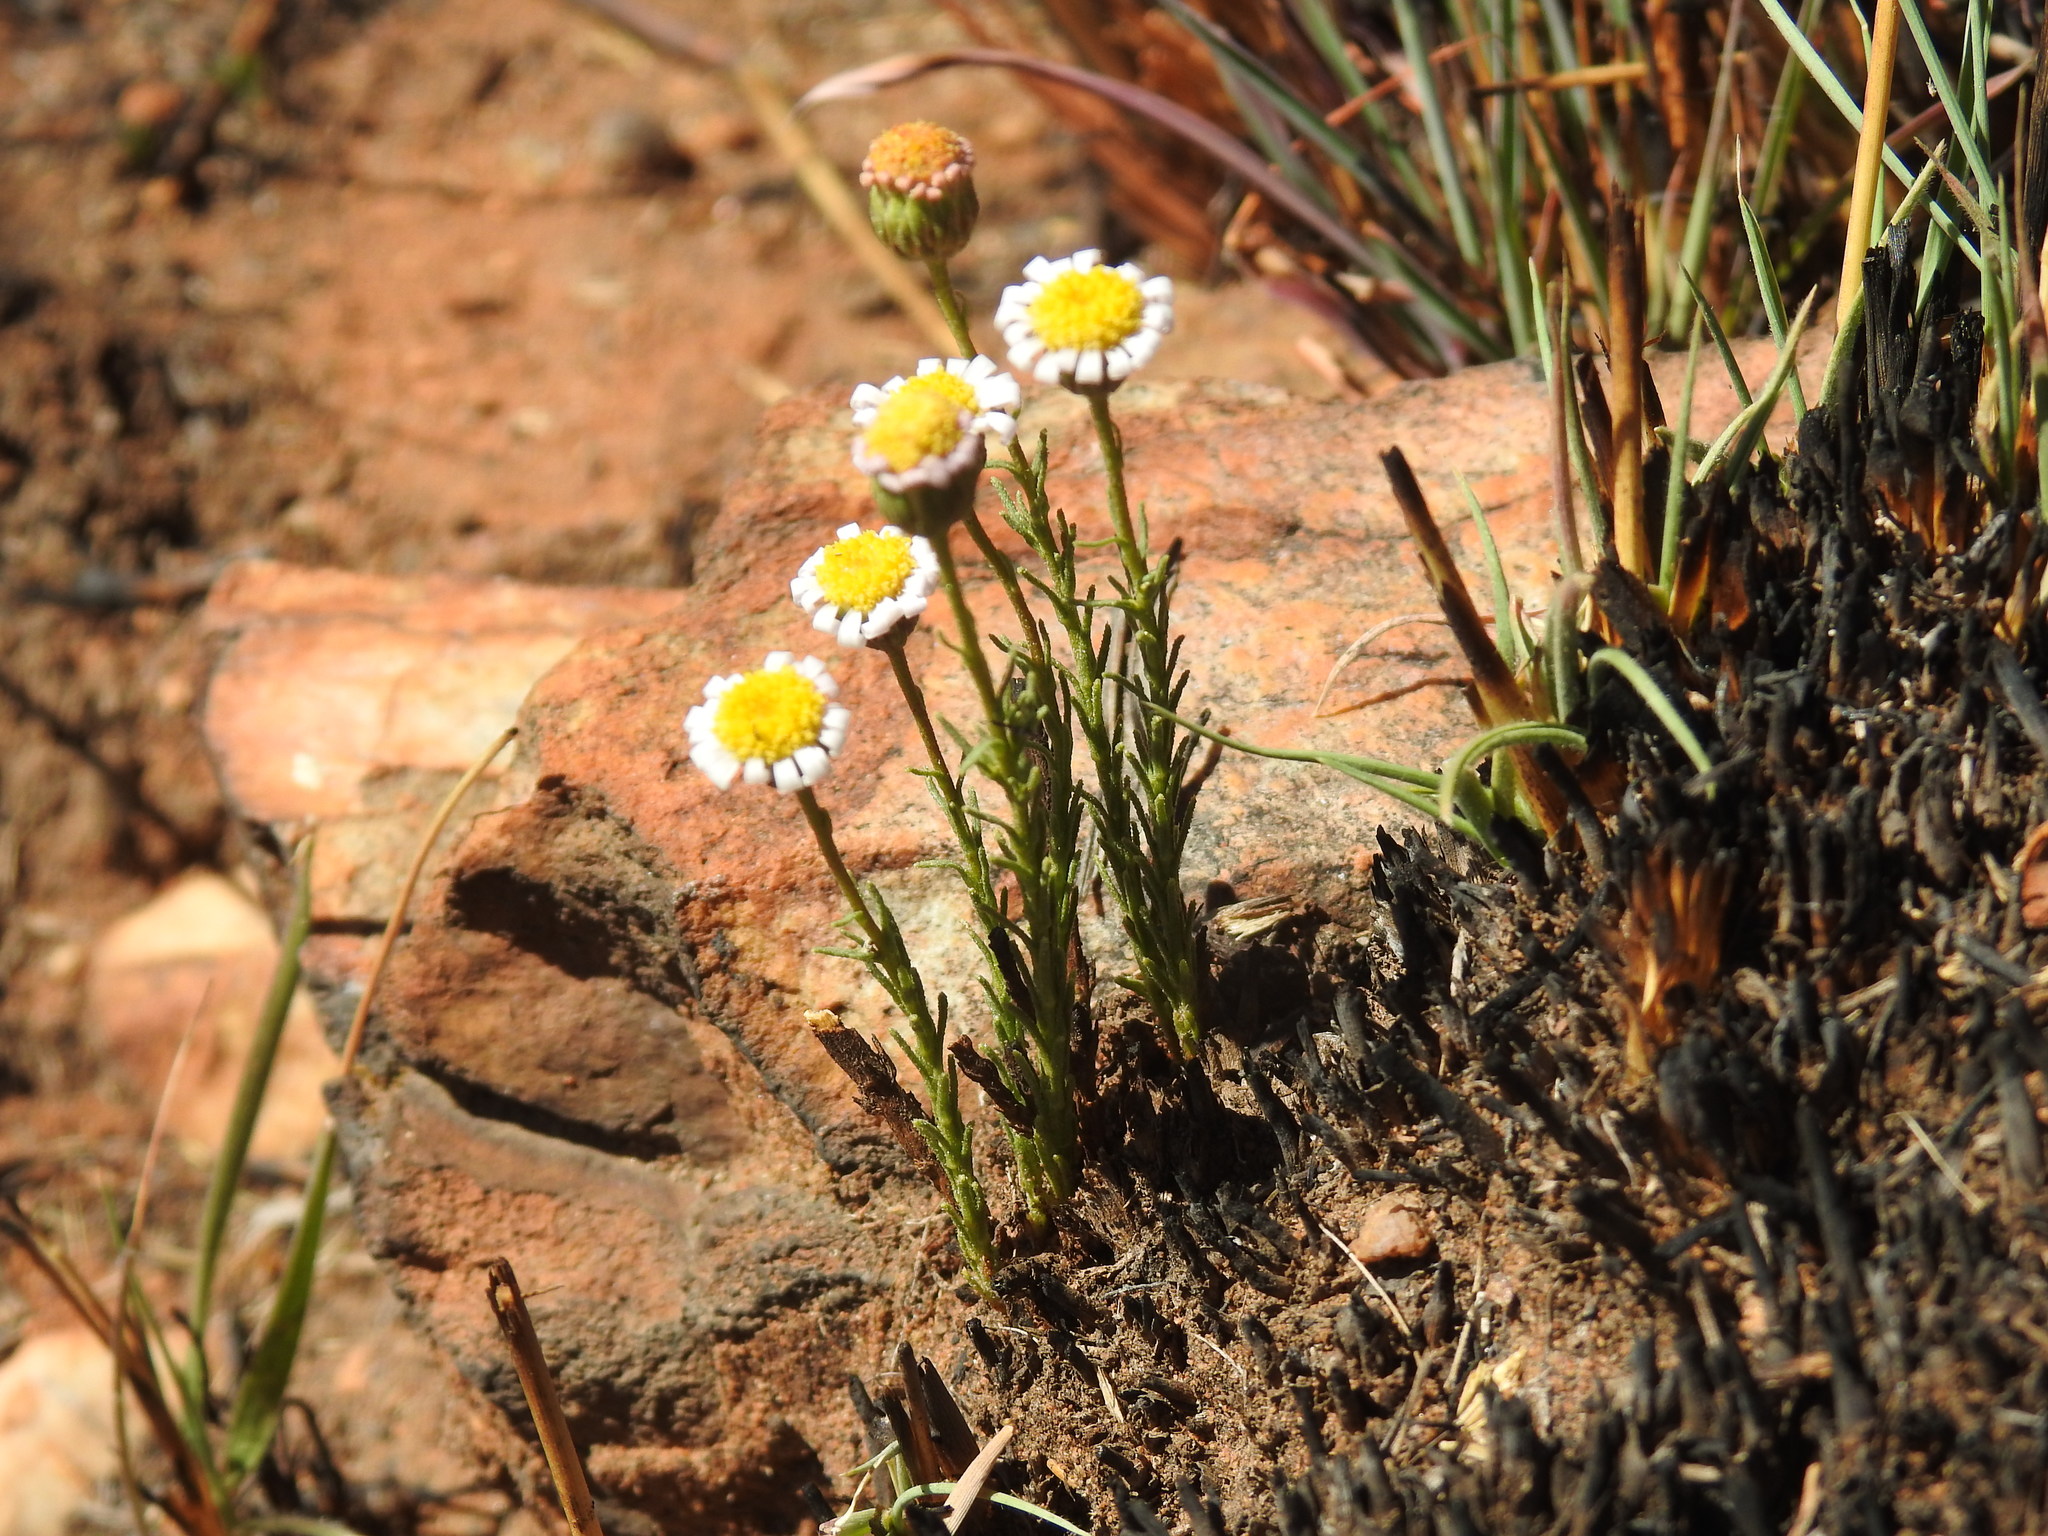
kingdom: Plantae
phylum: Tracheophyta
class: Magnoliopsida
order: Asterales
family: Asteraceae
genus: Felicia
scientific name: Felicia muricata
